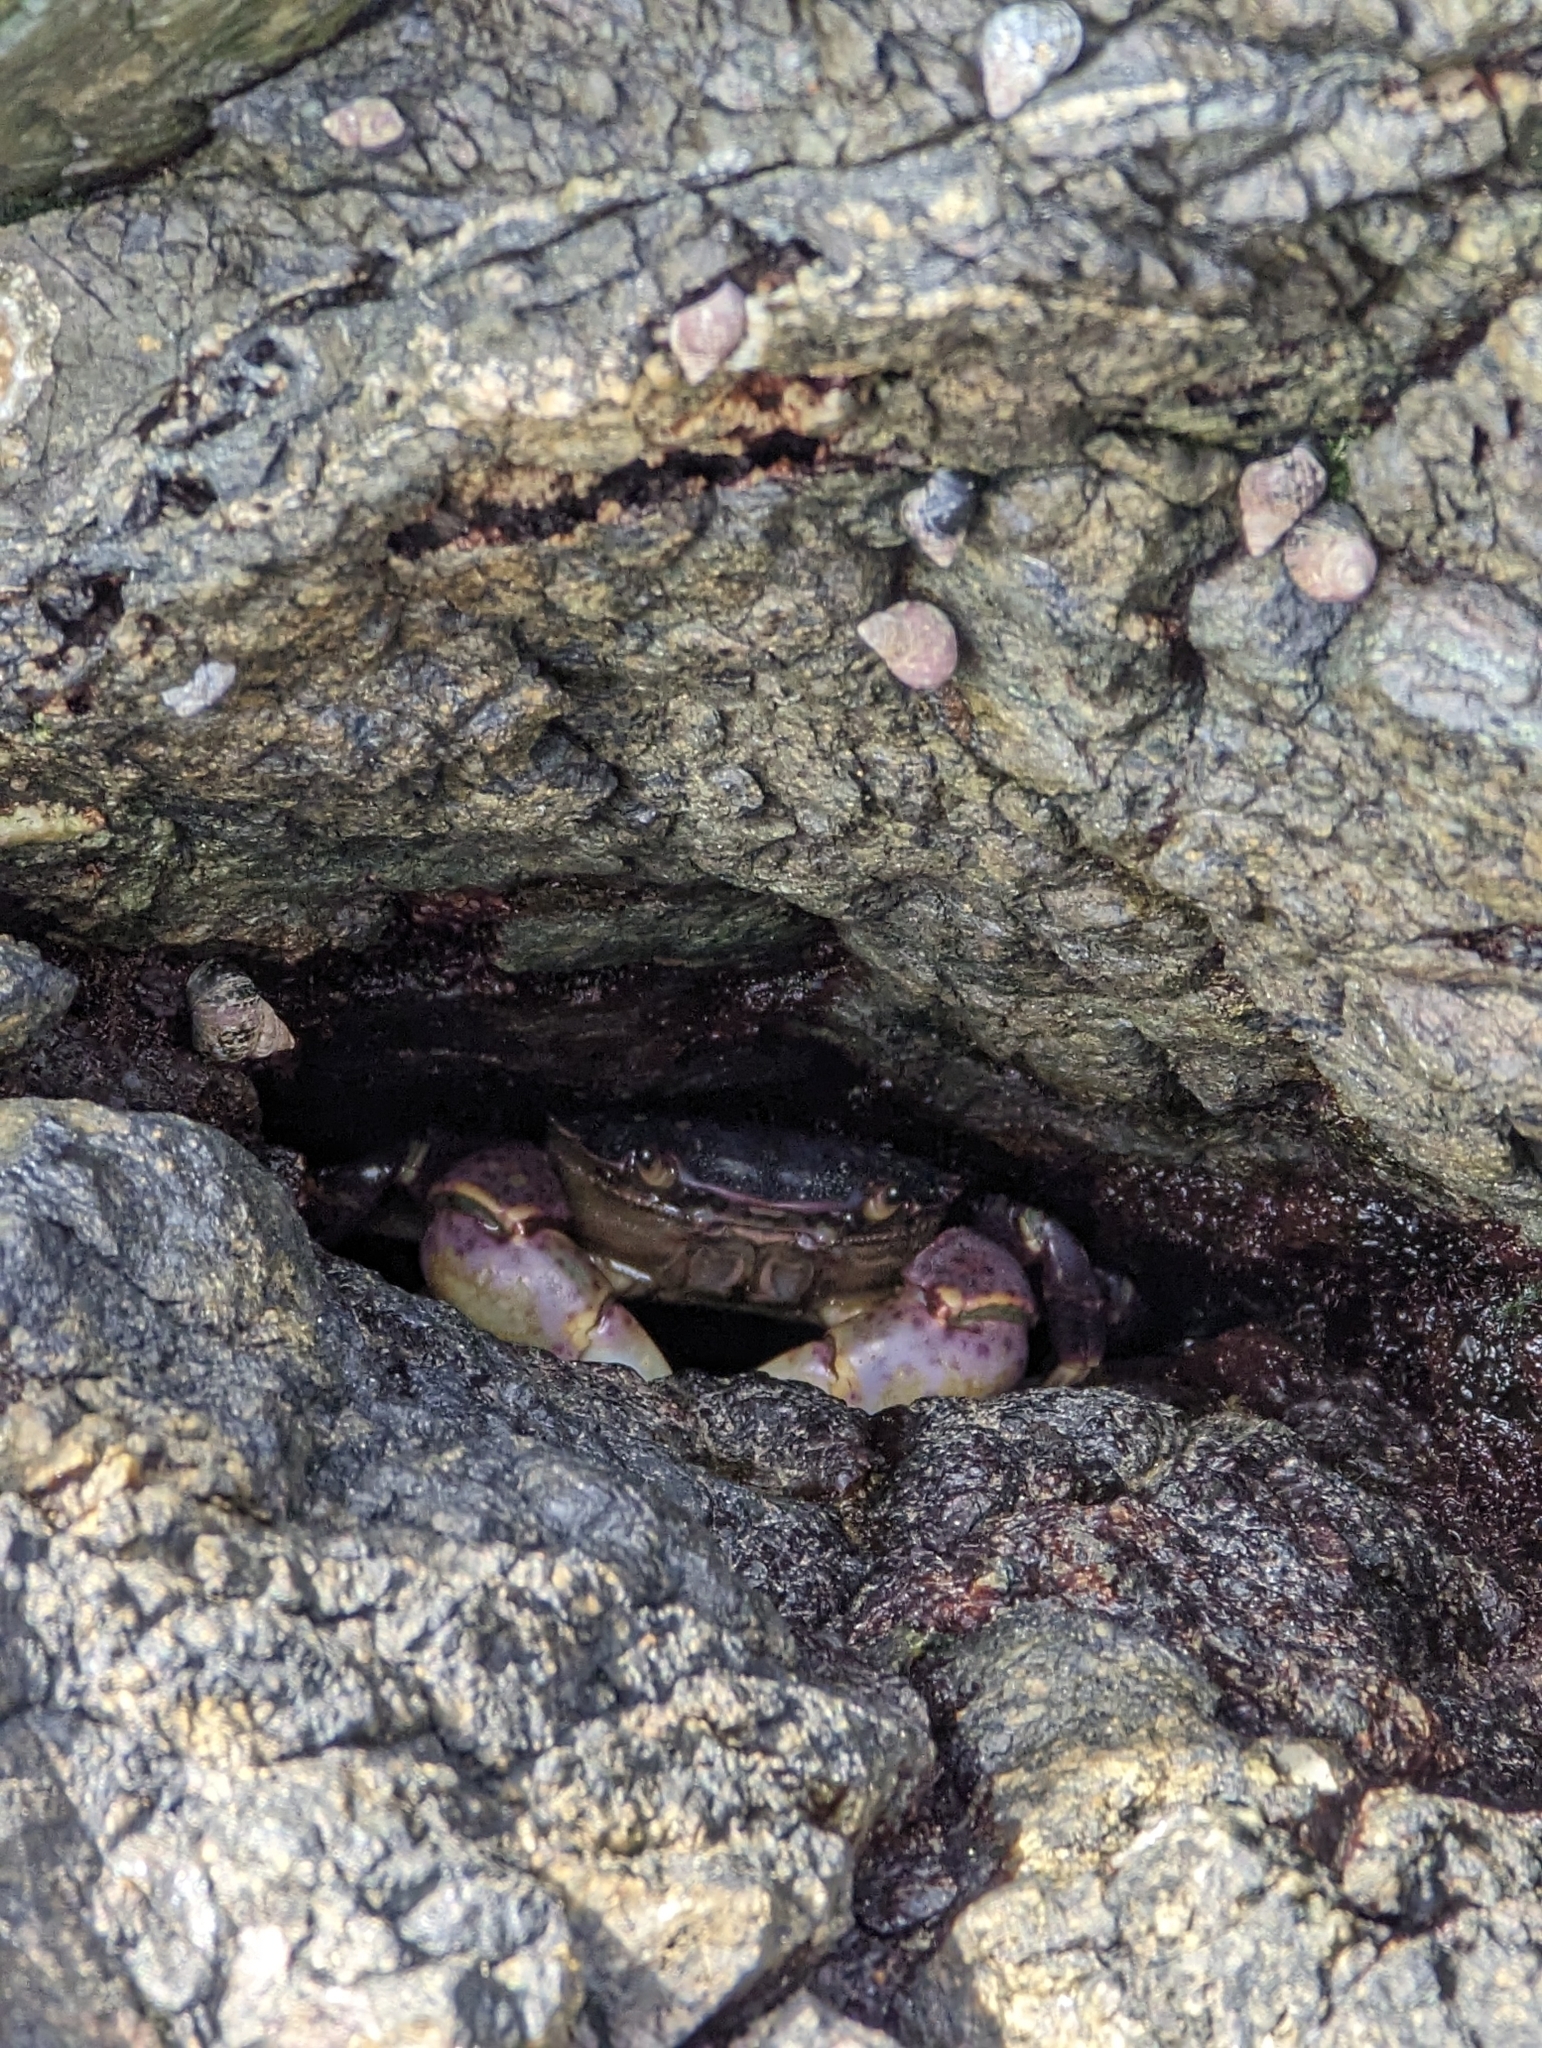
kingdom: Animalia
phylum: Arthropoda
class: Malacostraca
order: Decapoda
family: Varunidae
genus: Hemigrapsus
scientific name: Hemigrapsus nudus
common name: Purple shore crab
